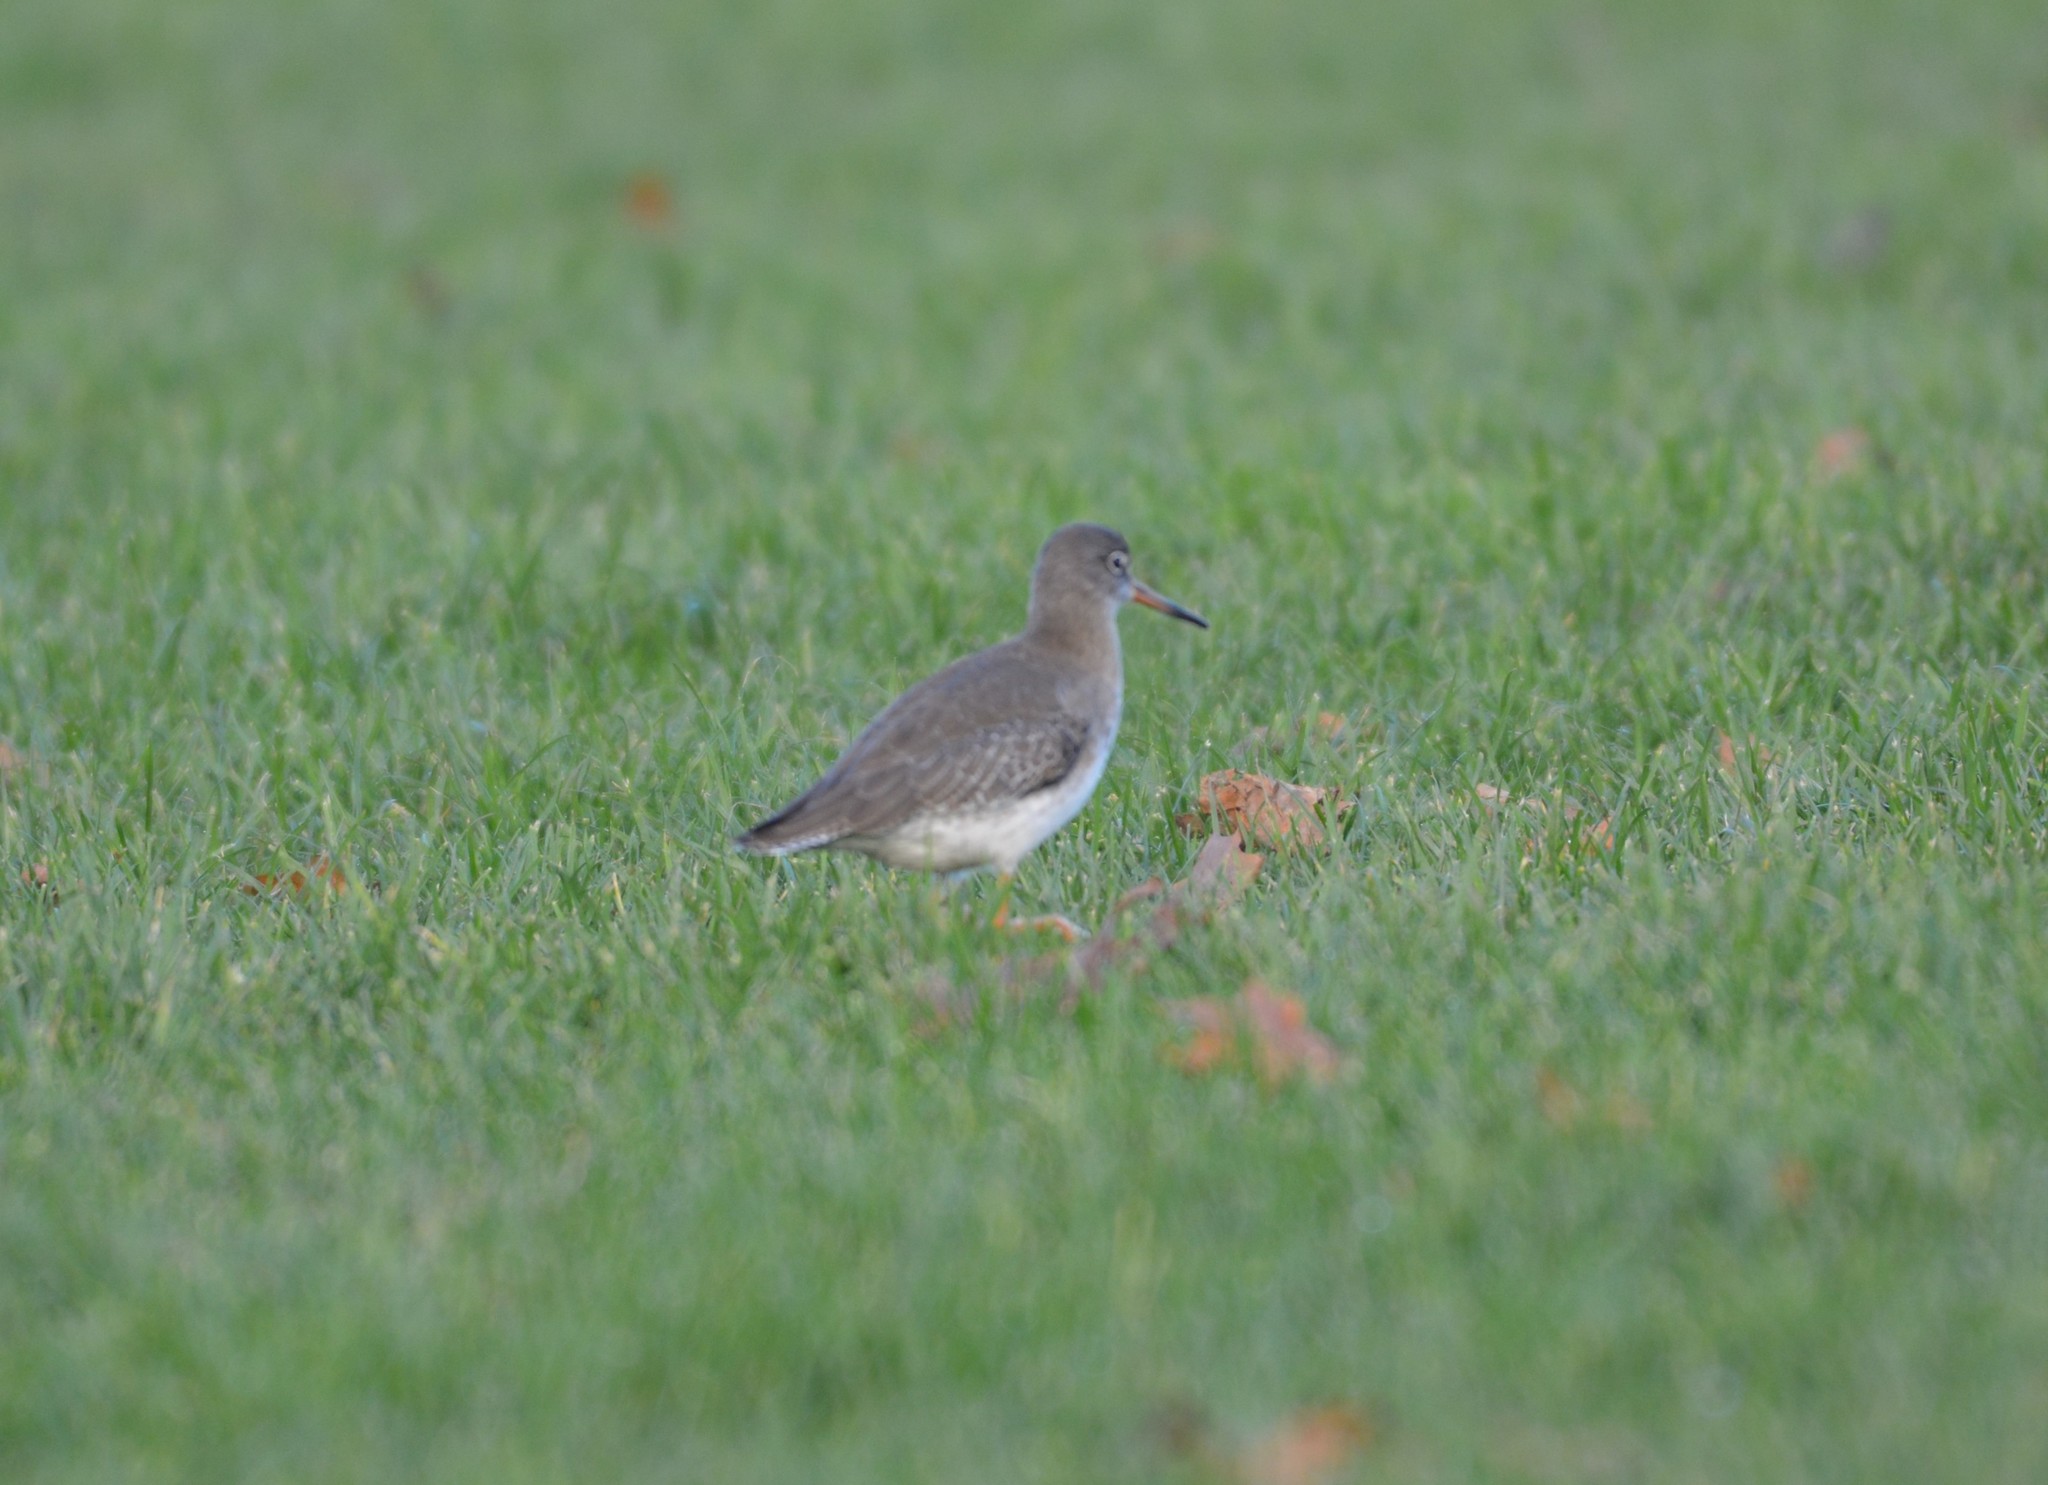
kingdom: Animalia
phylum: Chordata
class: Aves
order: Charadriiformes
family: Scolopacidae
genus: Tringa
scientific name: Tringa totanus
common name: Common redshank
